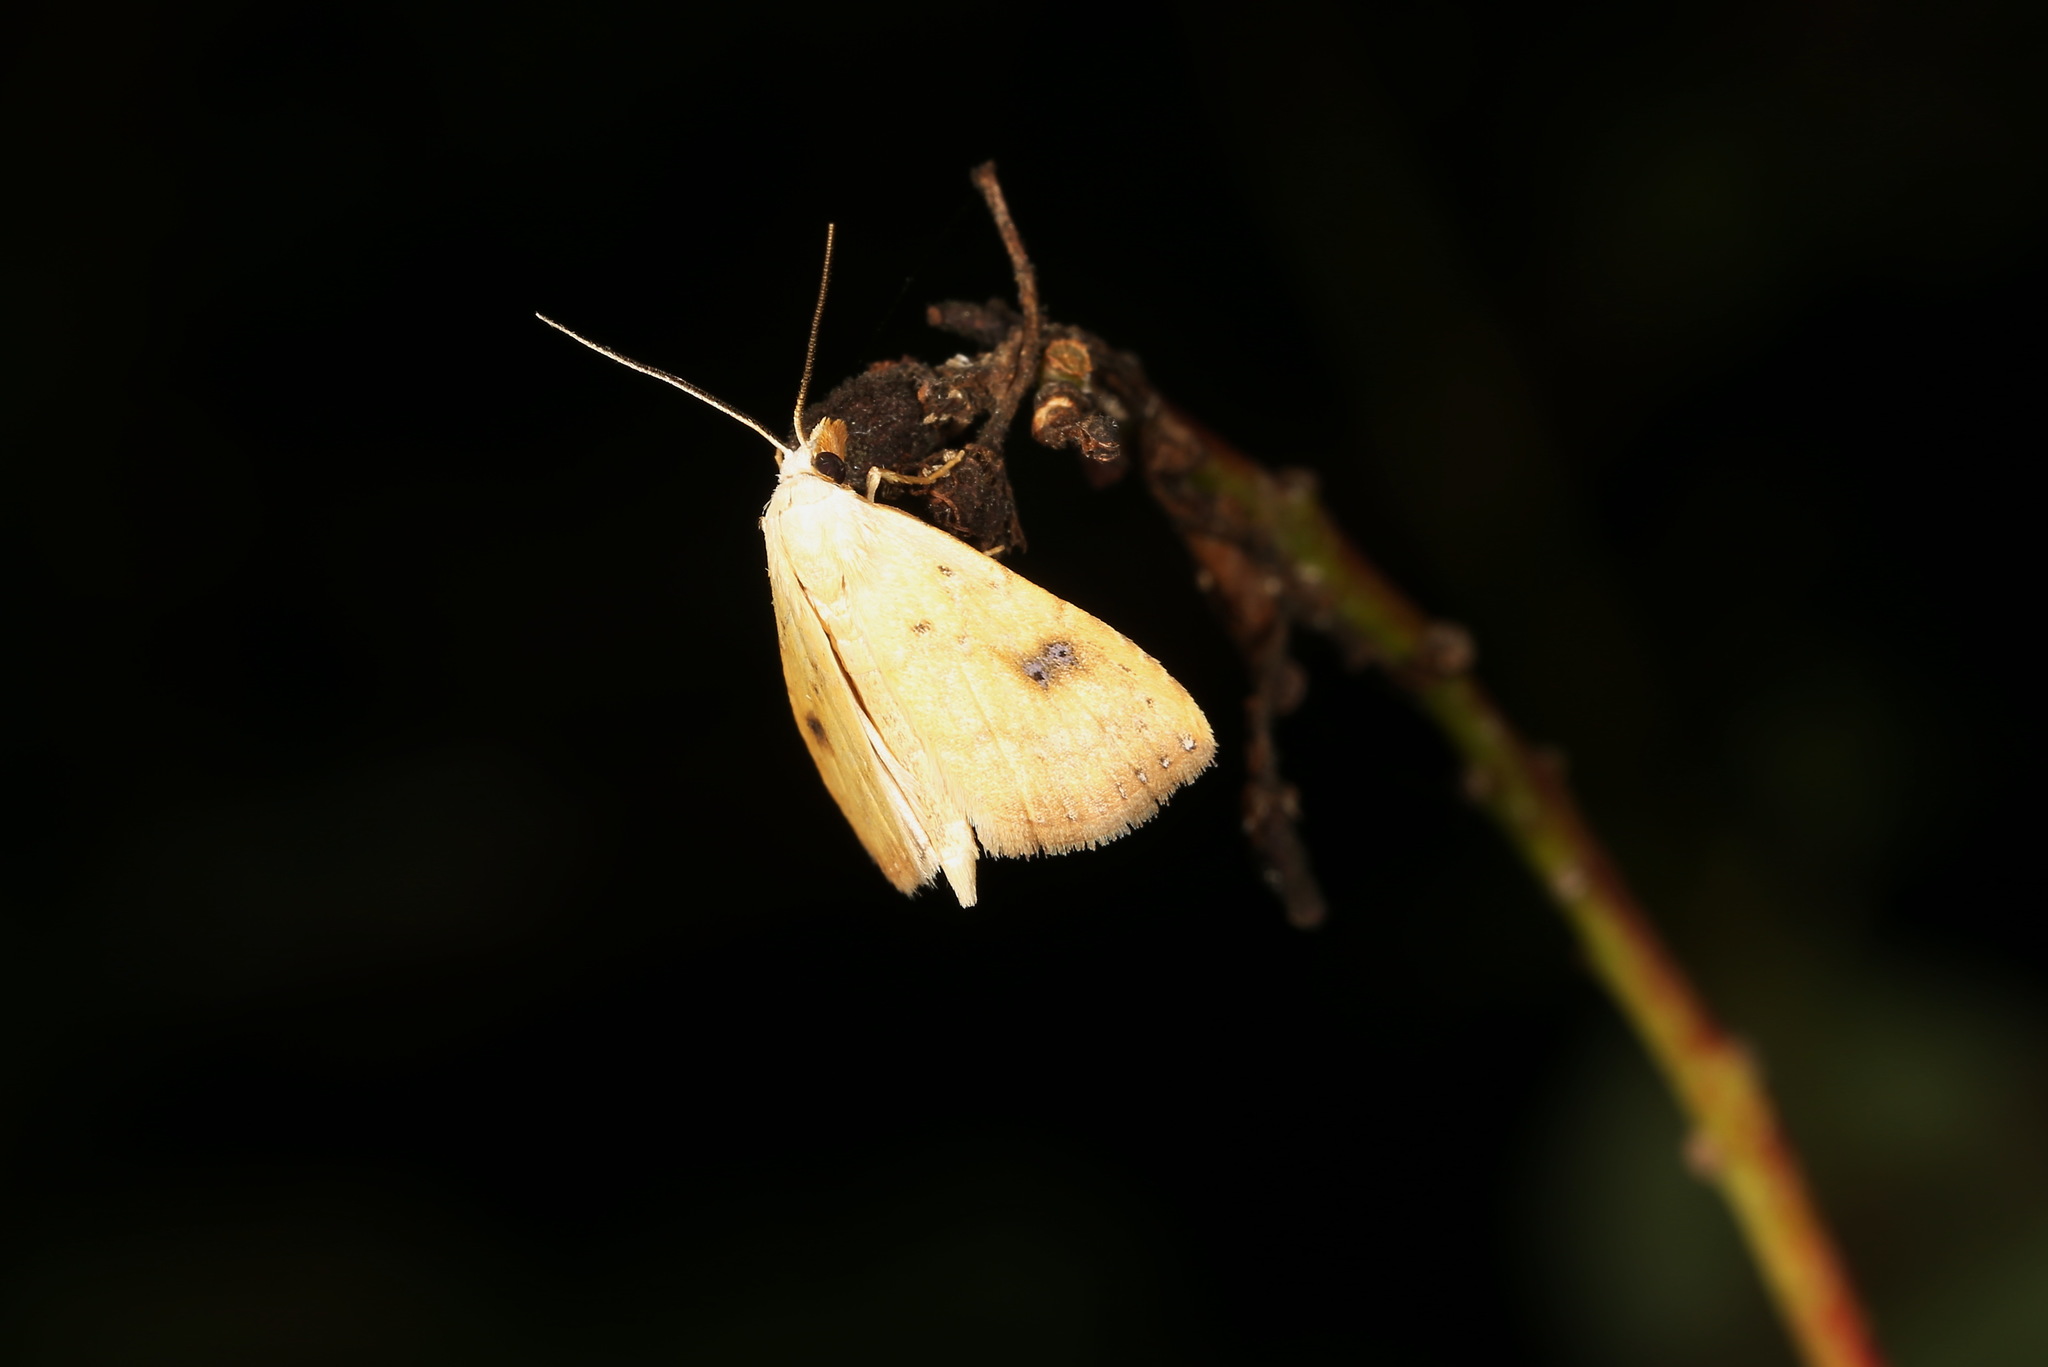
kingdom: Animalia
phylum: Arthropoda
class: Insecta
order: Lepidoptera
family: Erebidae
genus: Rivula
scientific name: Rivula sericealis
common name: Straw dot
